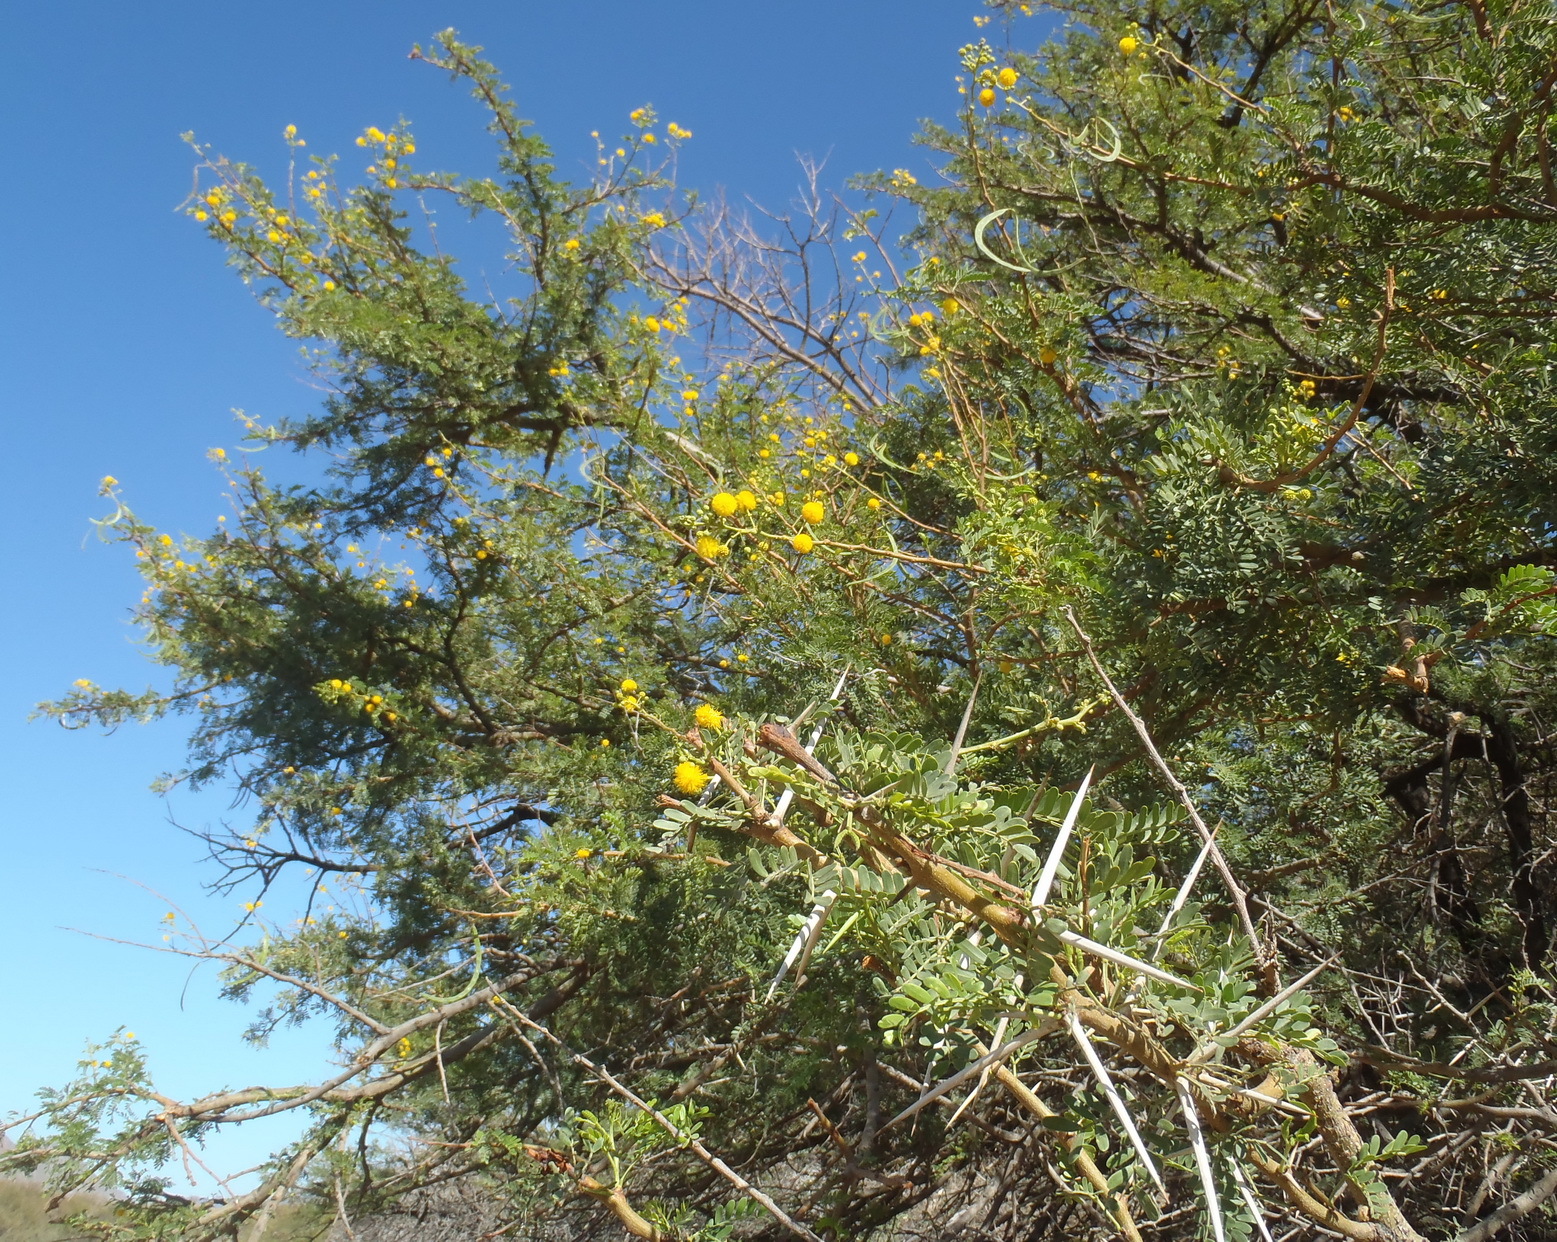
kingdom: Plantae
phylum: Tracheophyta
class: Magnoliopsida
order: Fabales
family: Fabaceae
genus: Vachellia
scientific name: Vachellia karroo
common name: Sweet thorn
